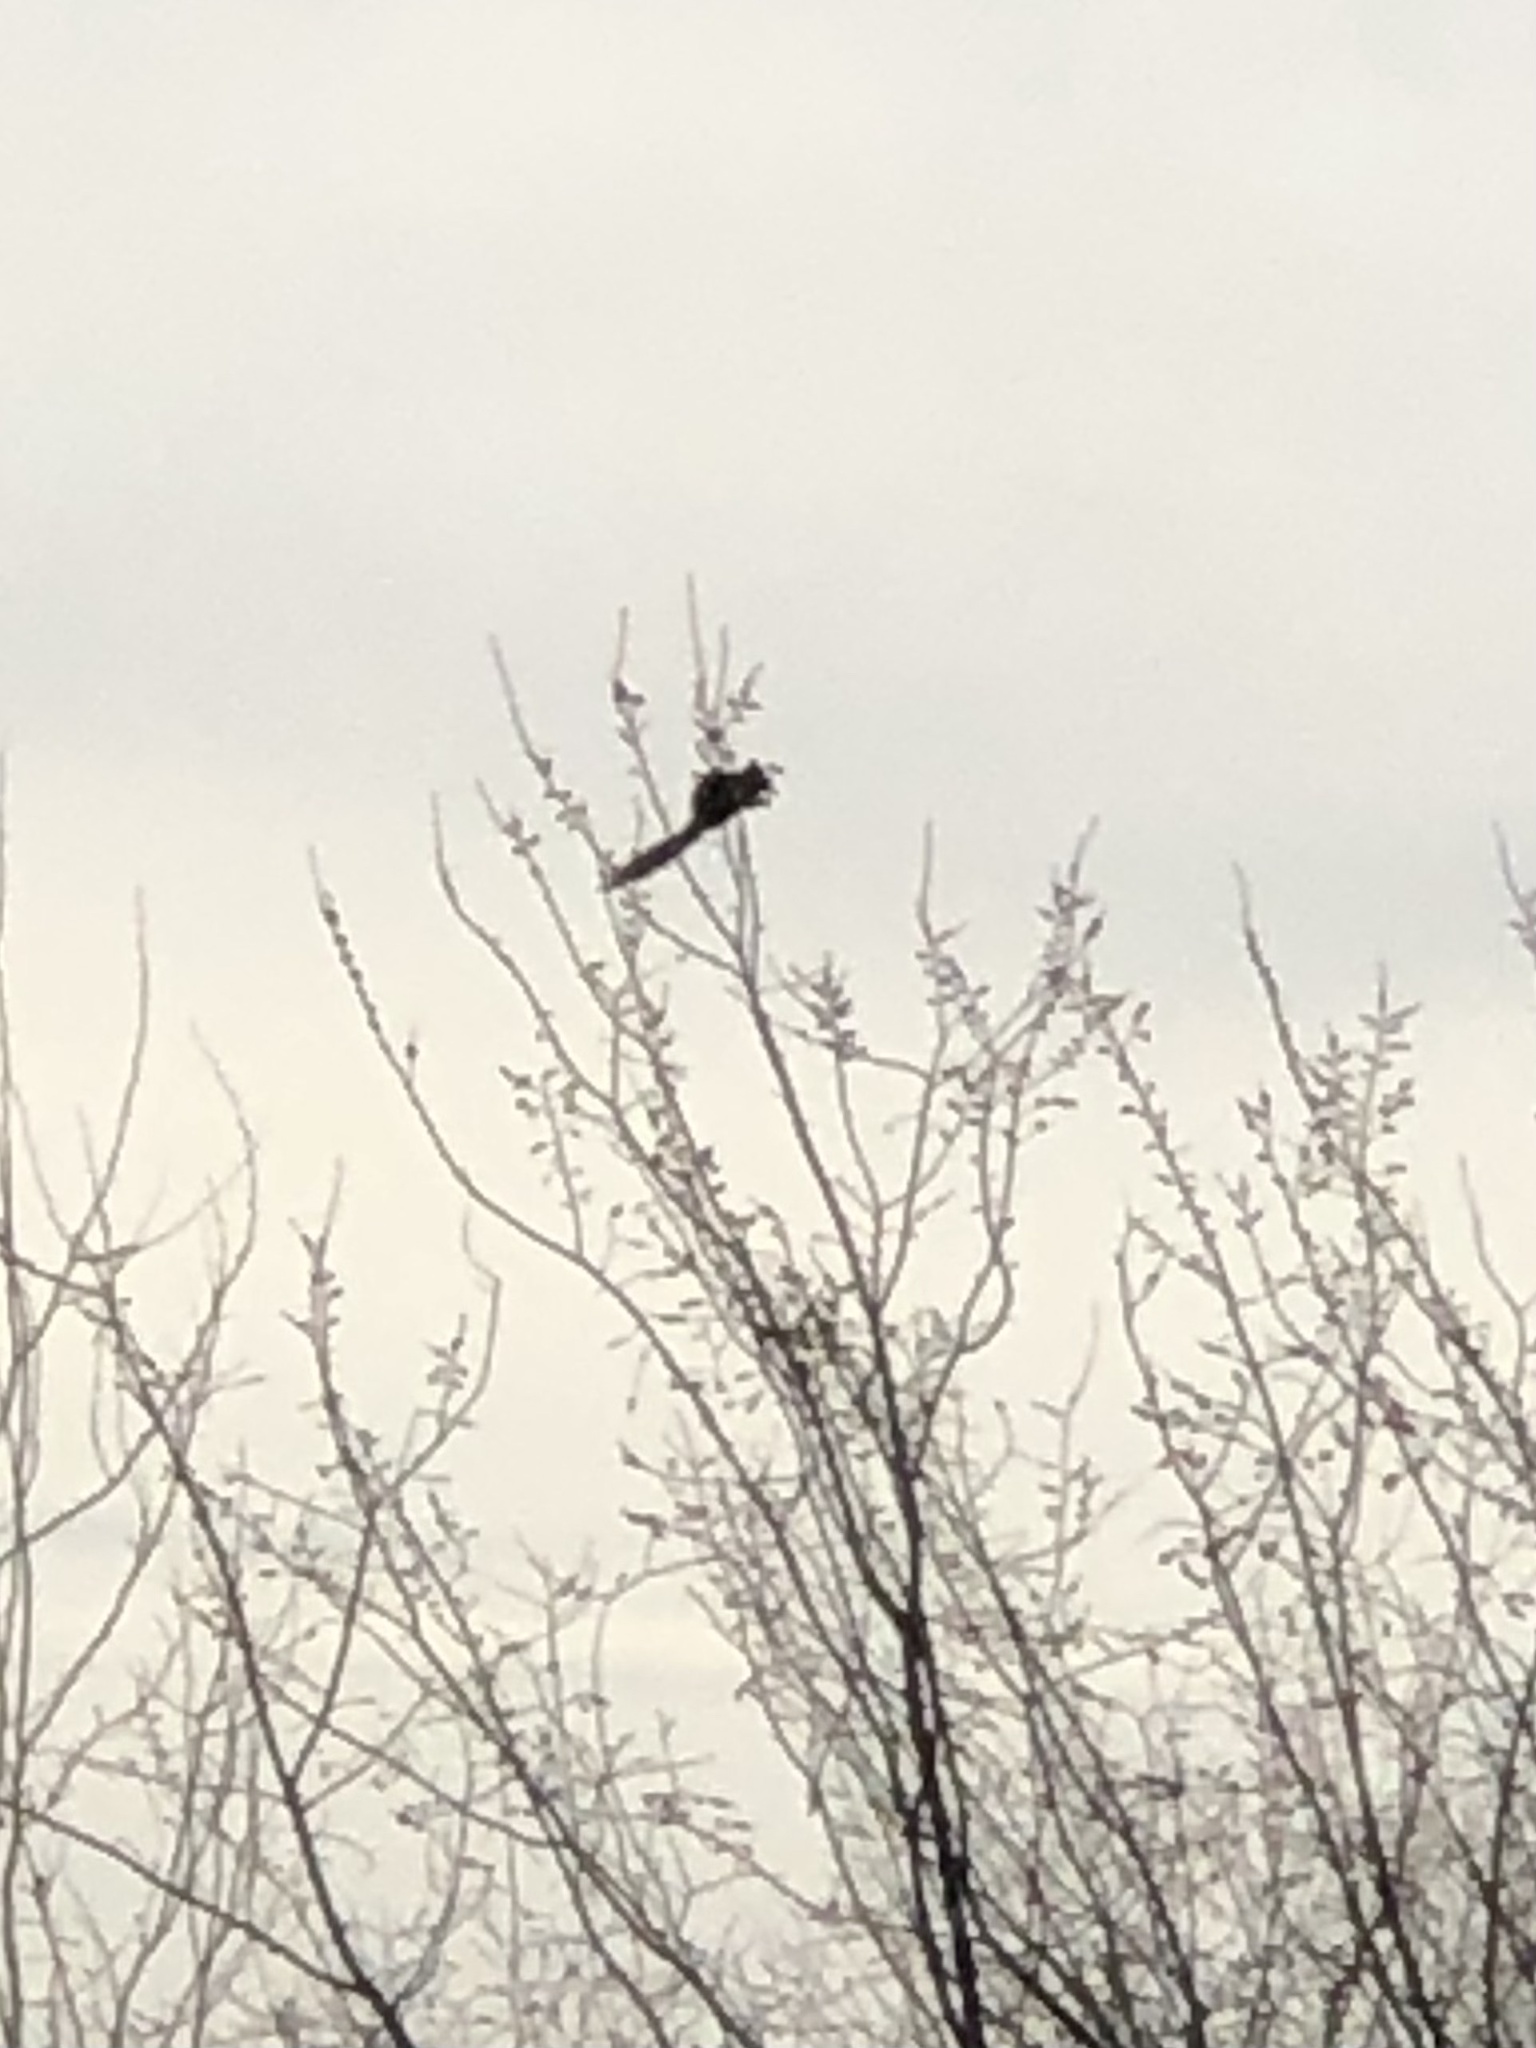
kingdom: Animalia
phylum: Chordata
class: Mammalia
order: Rodentia
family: Sciuridae
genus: Sciurus
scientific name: Sciurus carolinensis
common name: Eastern gray squirrel
